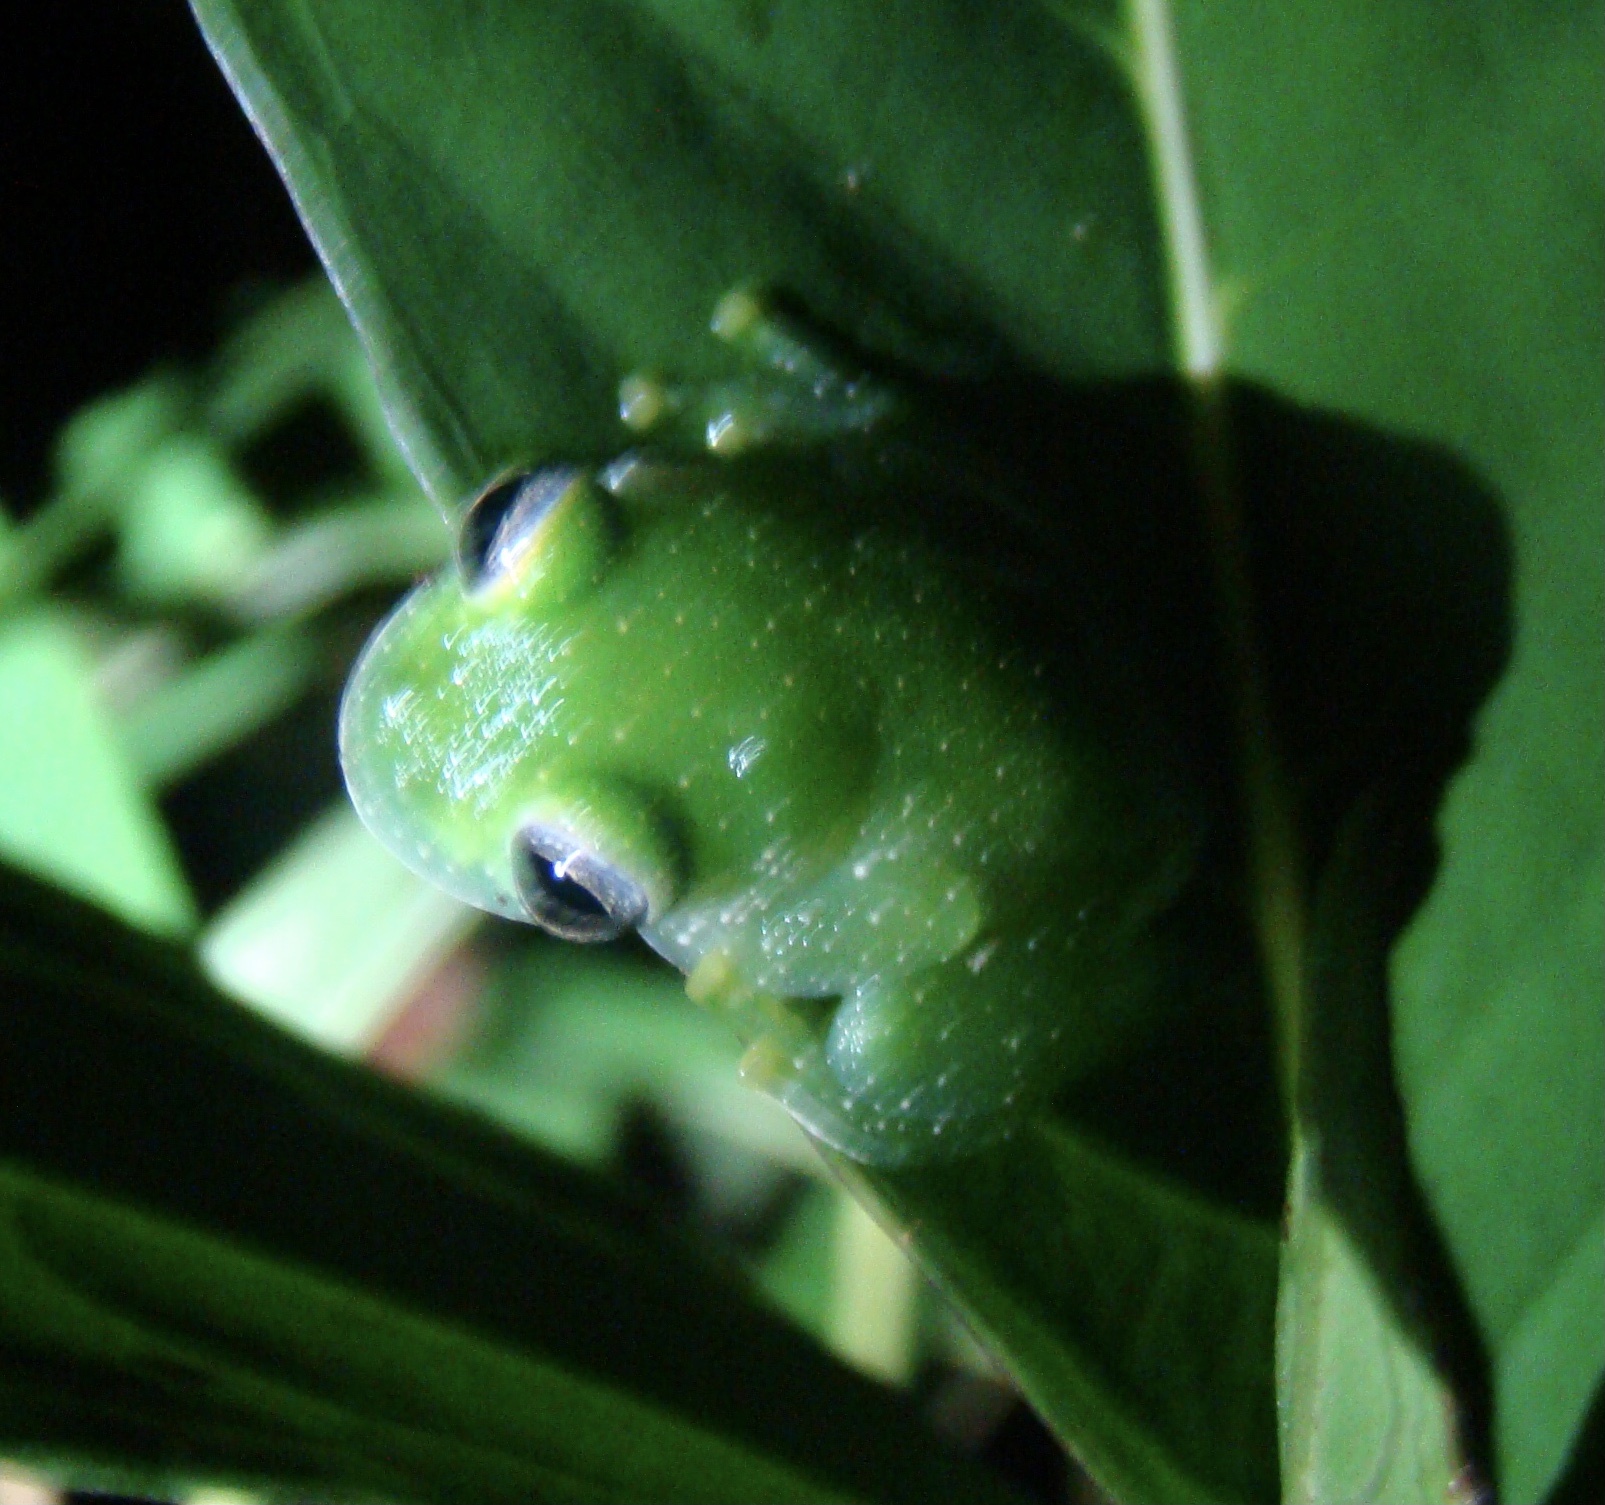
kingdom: Animalia
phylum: Chordata
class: Amphibia
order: Anura
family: Centrolenidae
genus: Teratohyla
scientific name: Teratohyla pulverata
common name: Chiriqui glass frog
